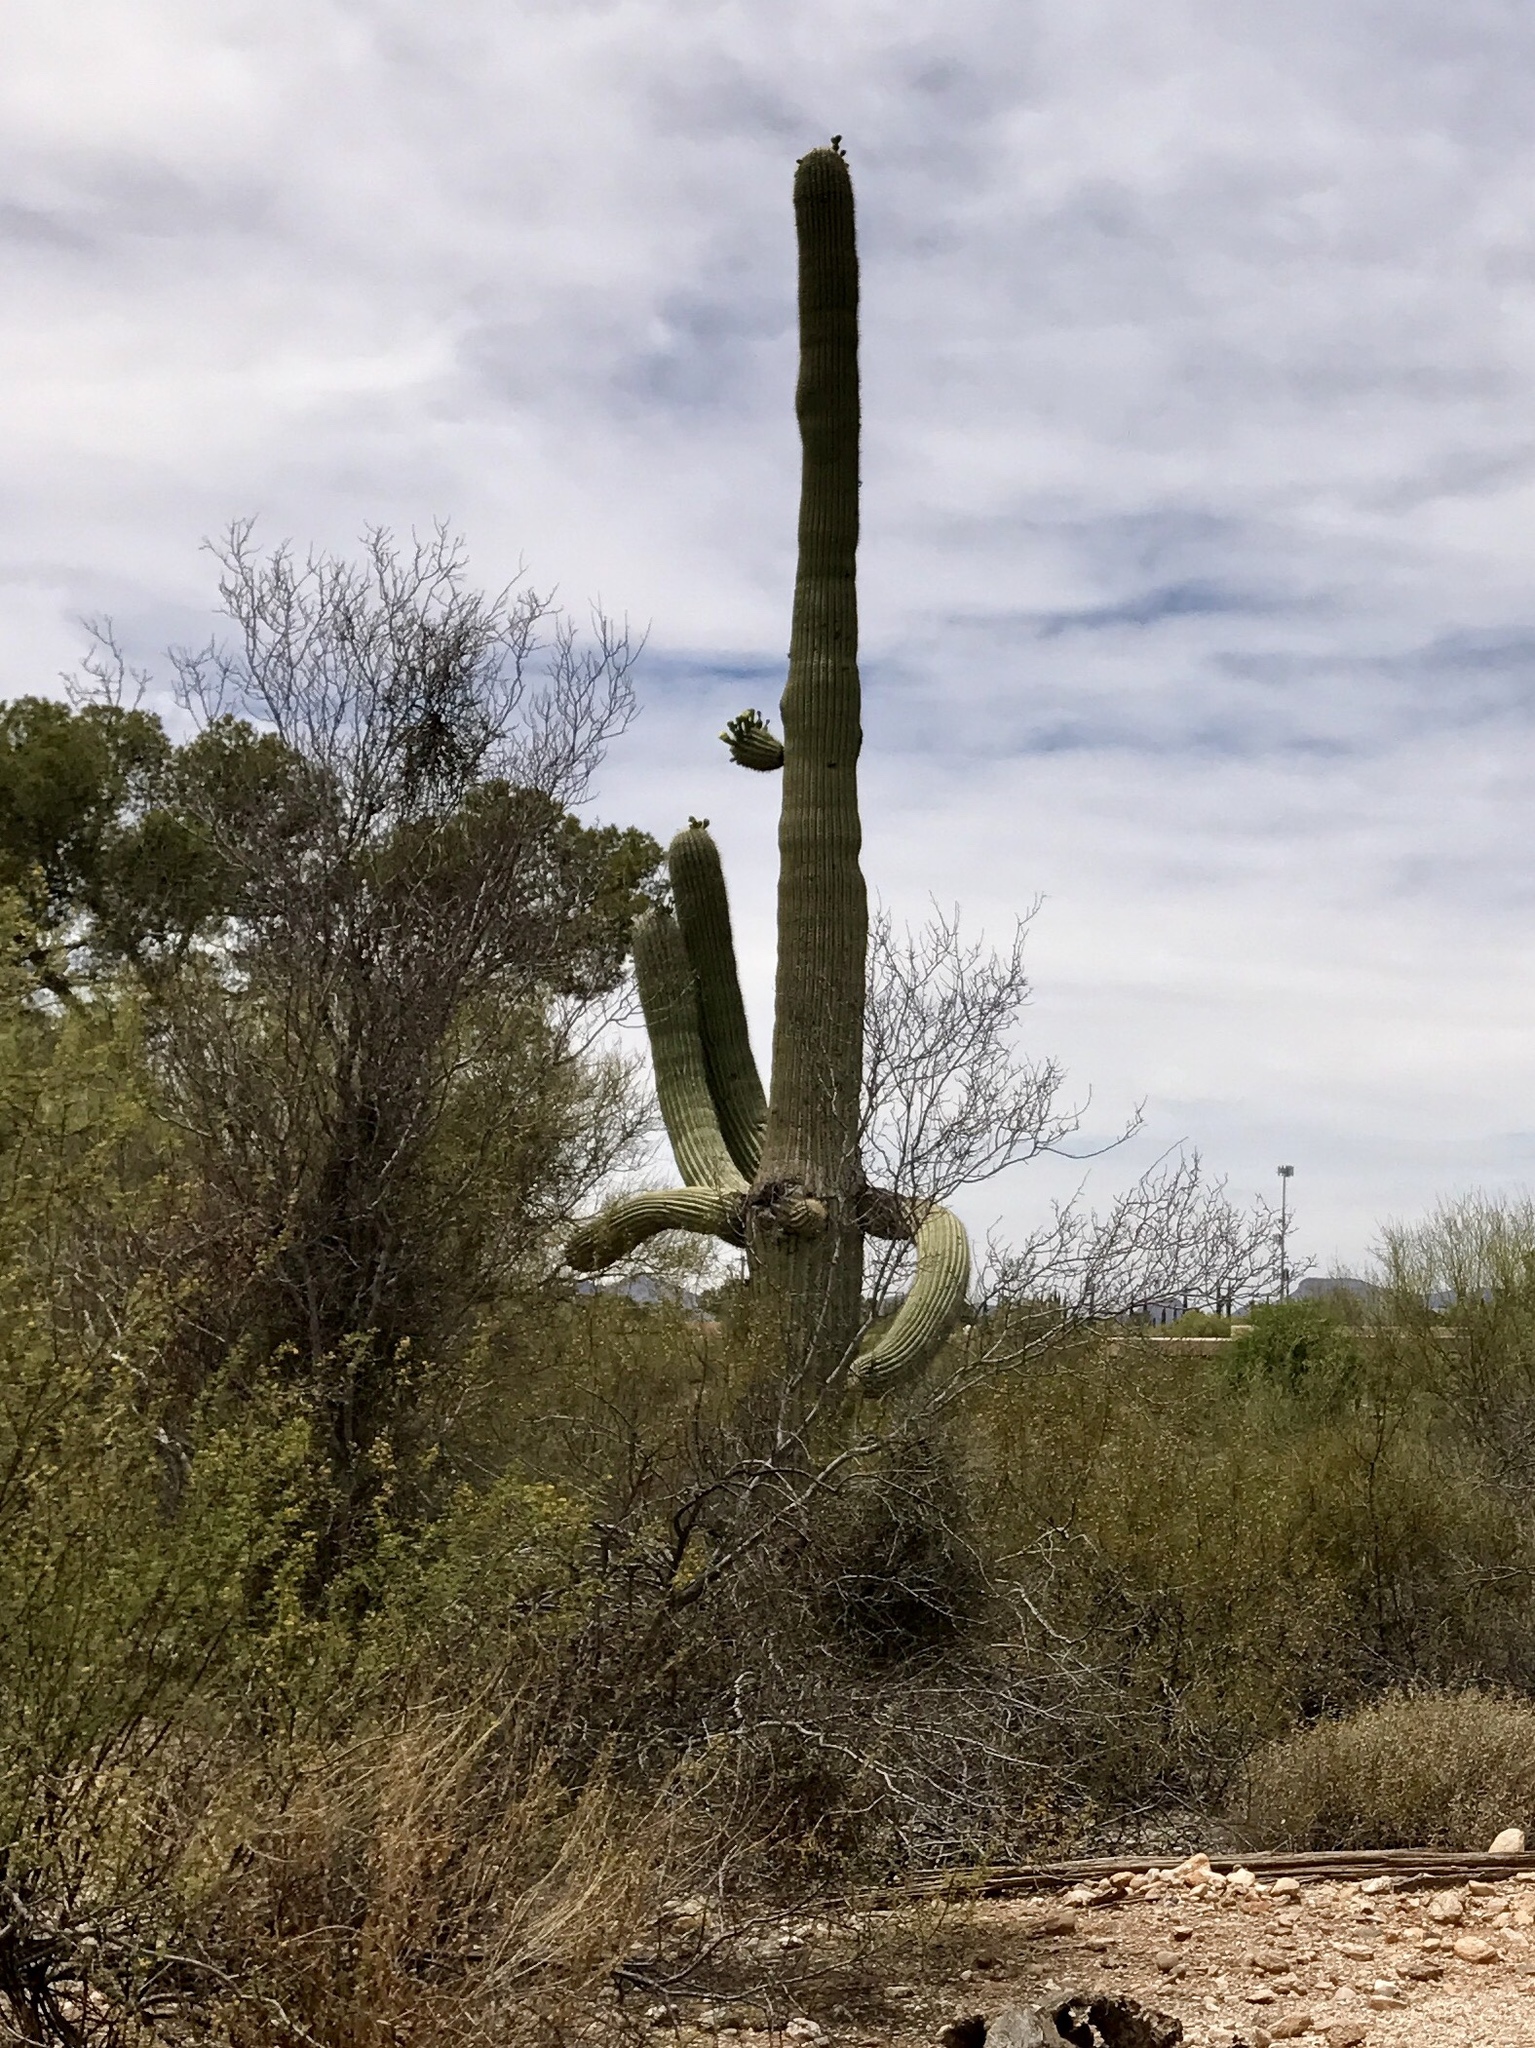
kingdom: Plantae
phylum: Tracheophyta
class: Magnoliopsida
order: Caryophyllales
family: Cactaceae
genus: Carnegiea
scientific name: Carnegiea gigantea
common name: Saguaro
